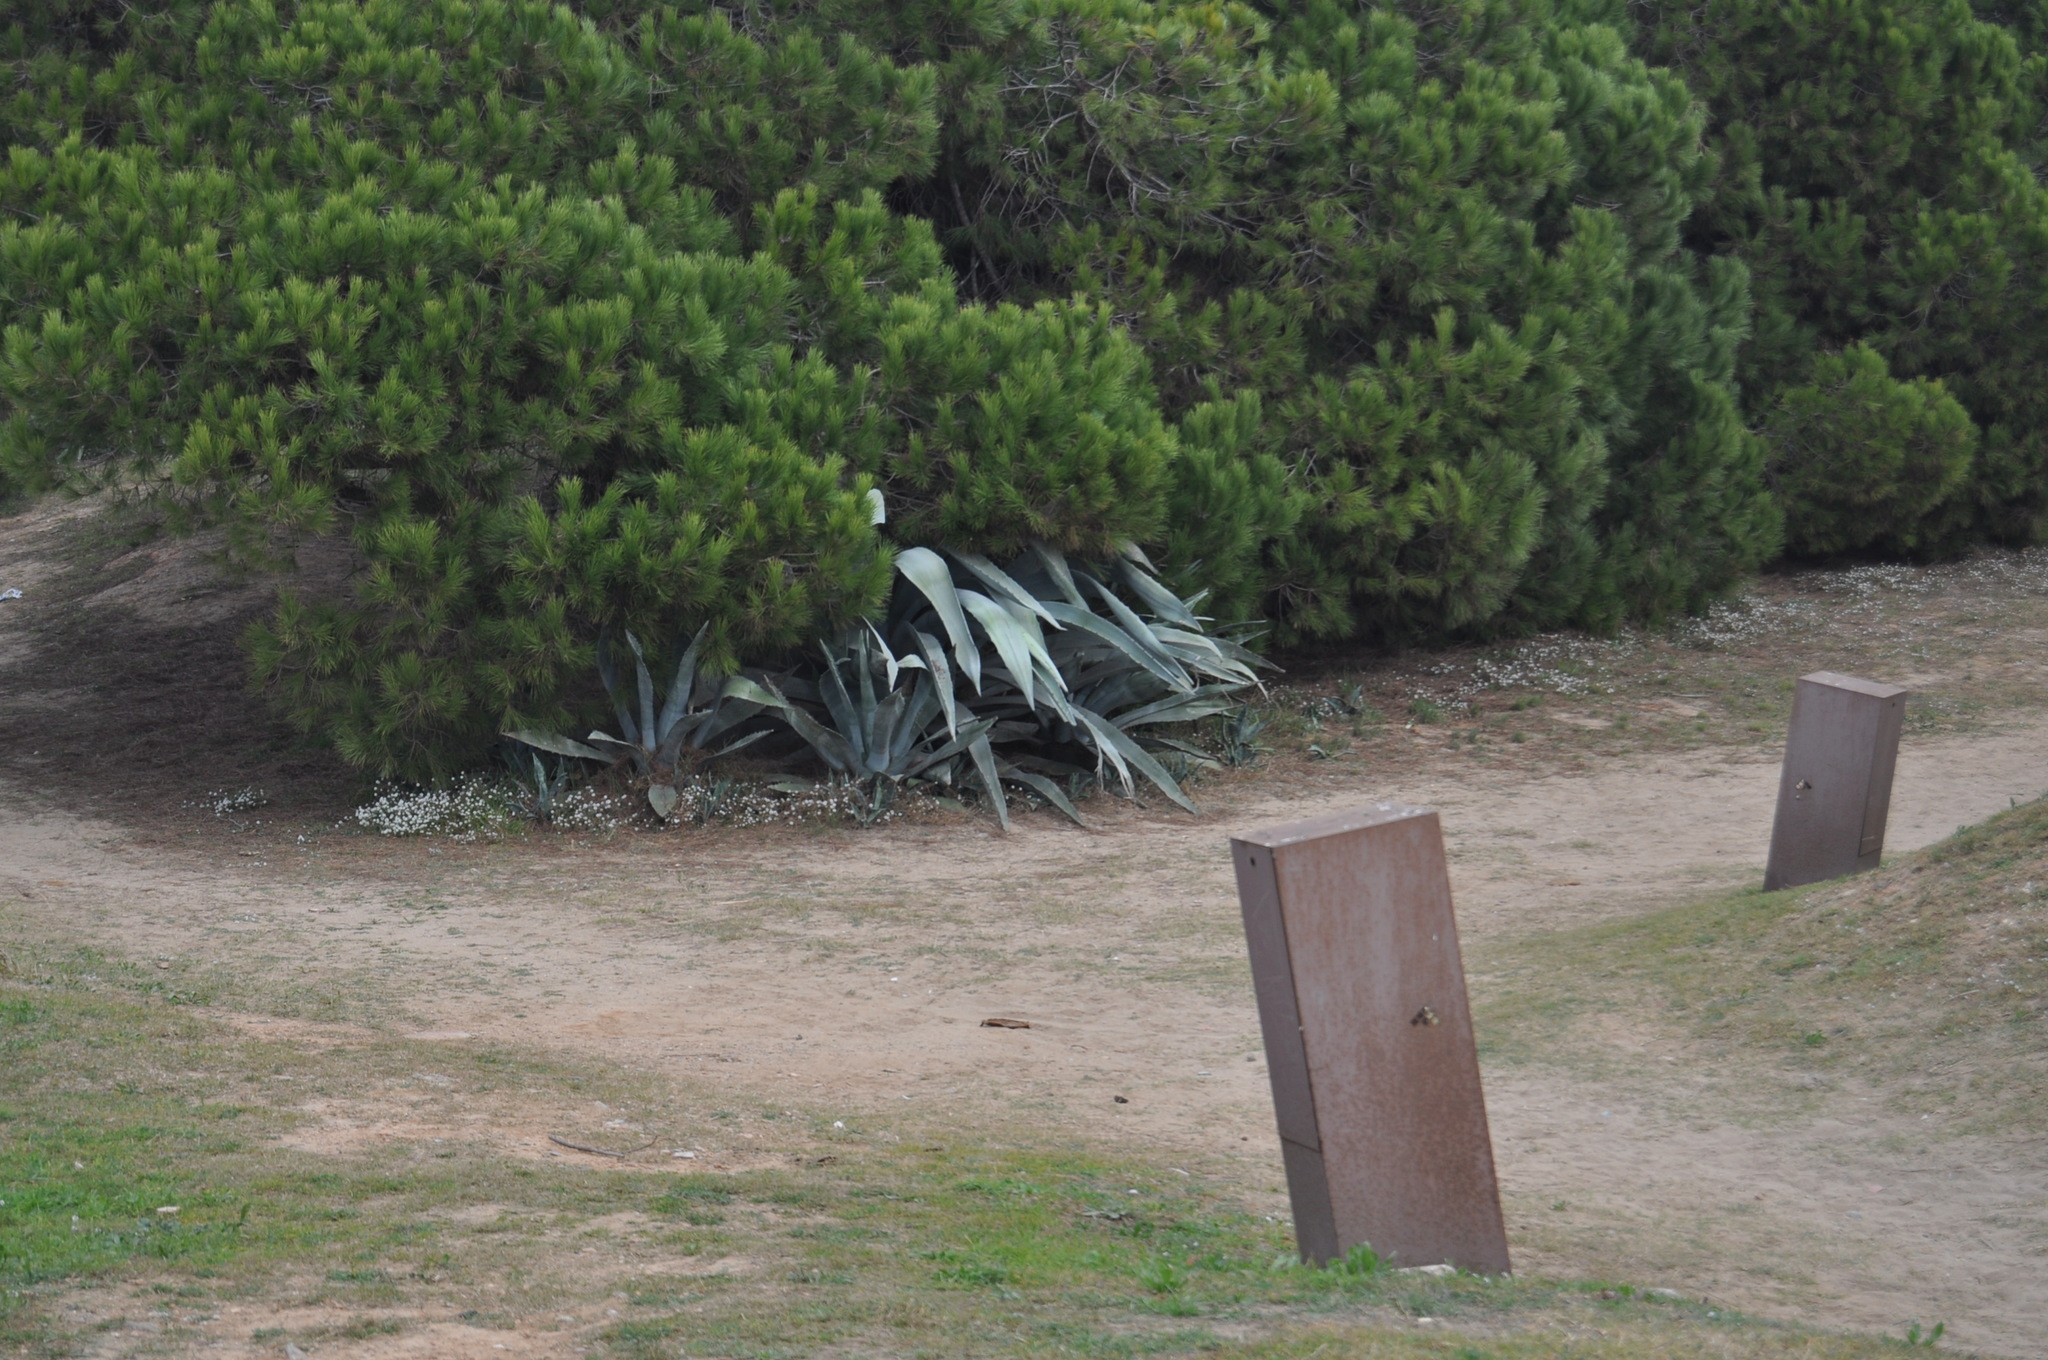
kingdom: Plantae
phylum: Tracheophyta
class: Liliopsida
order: Asparagales
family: Asparagaceae
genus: Agave
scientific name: Agave americana
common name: Centuryplant
